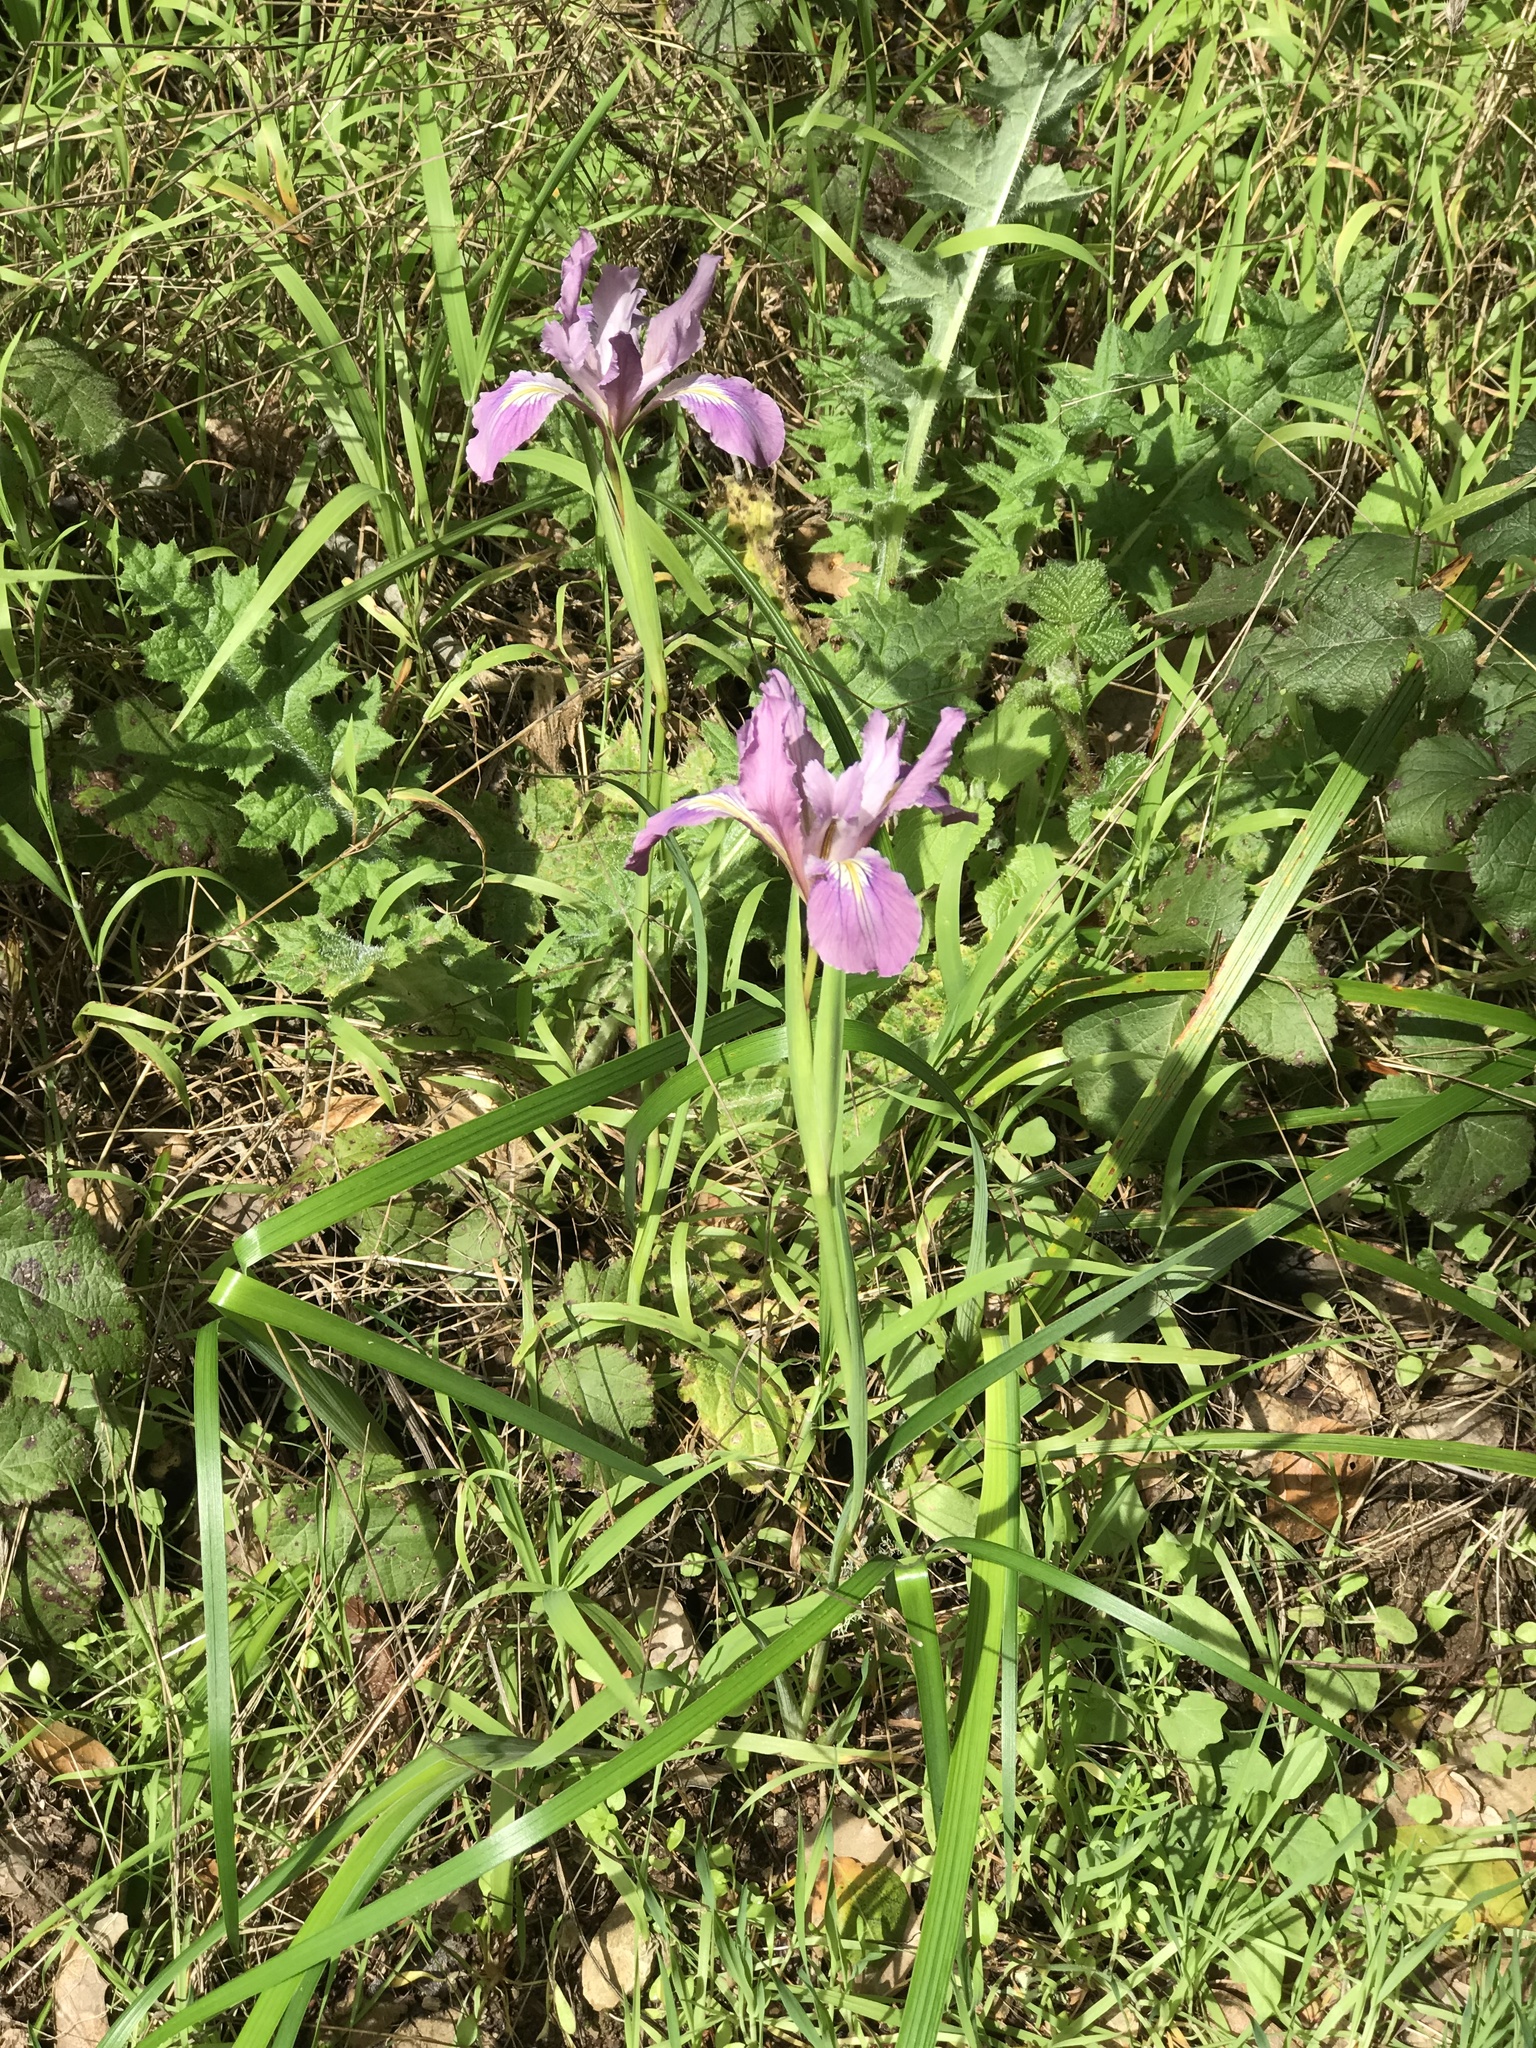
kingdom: Plantae
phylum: Tracheophyta
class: Liliopsida
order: Asparagales
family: Iridaceae
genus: Iris
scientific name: Iris douglasiana
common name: Marin iris
